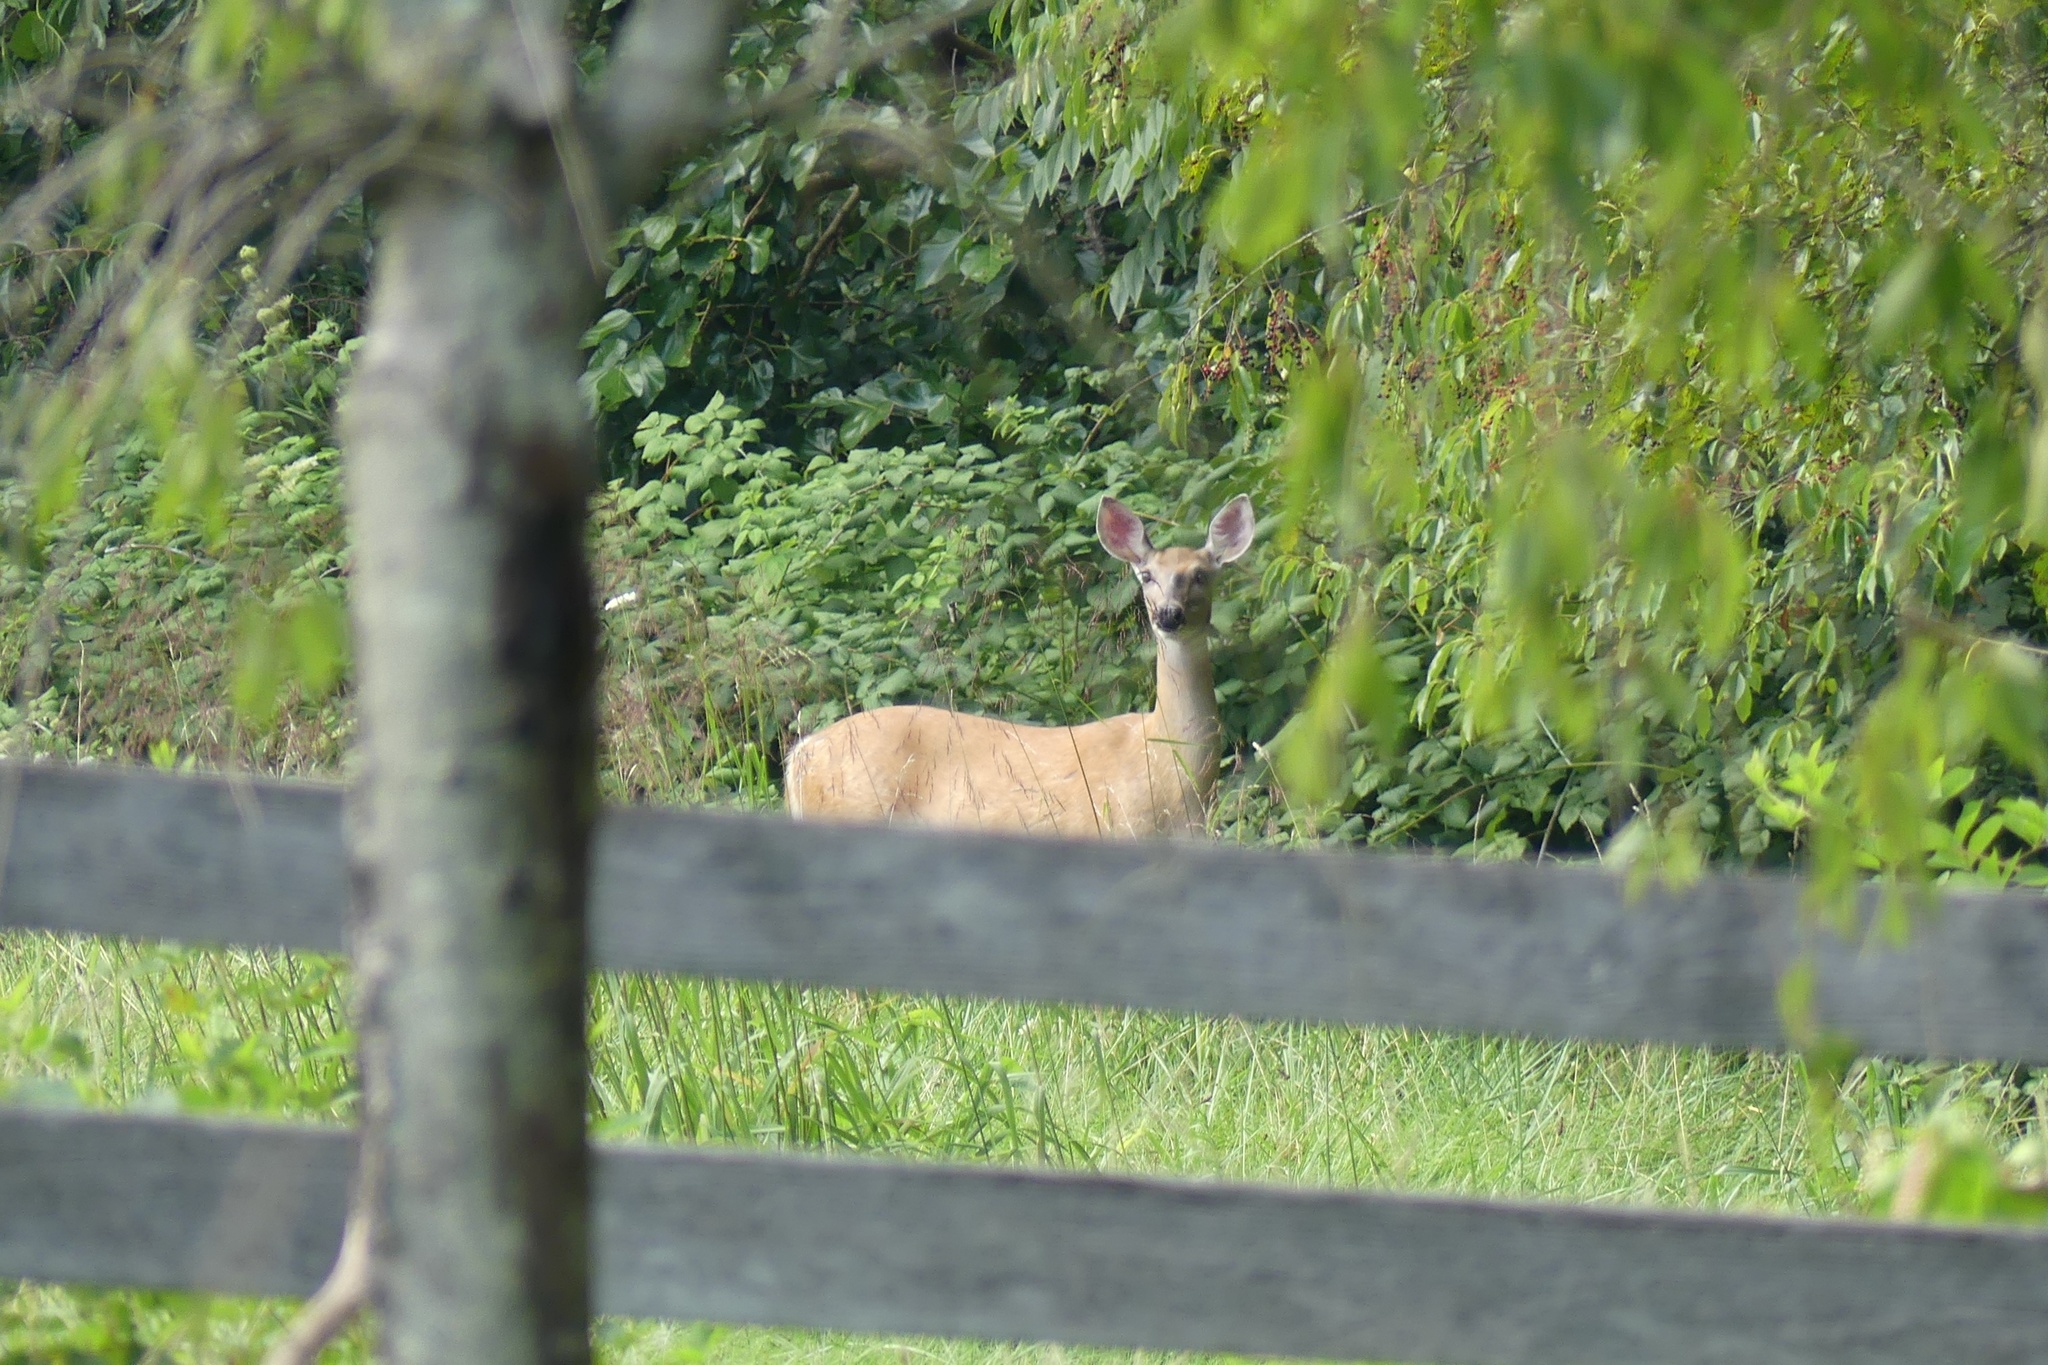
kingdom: Animalia
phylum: Chordata
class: Mammalia
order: Artiodactyla
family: Cervidae
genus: Odocoileus
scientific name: Odocoileus virginianus
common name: White-tailed deer
